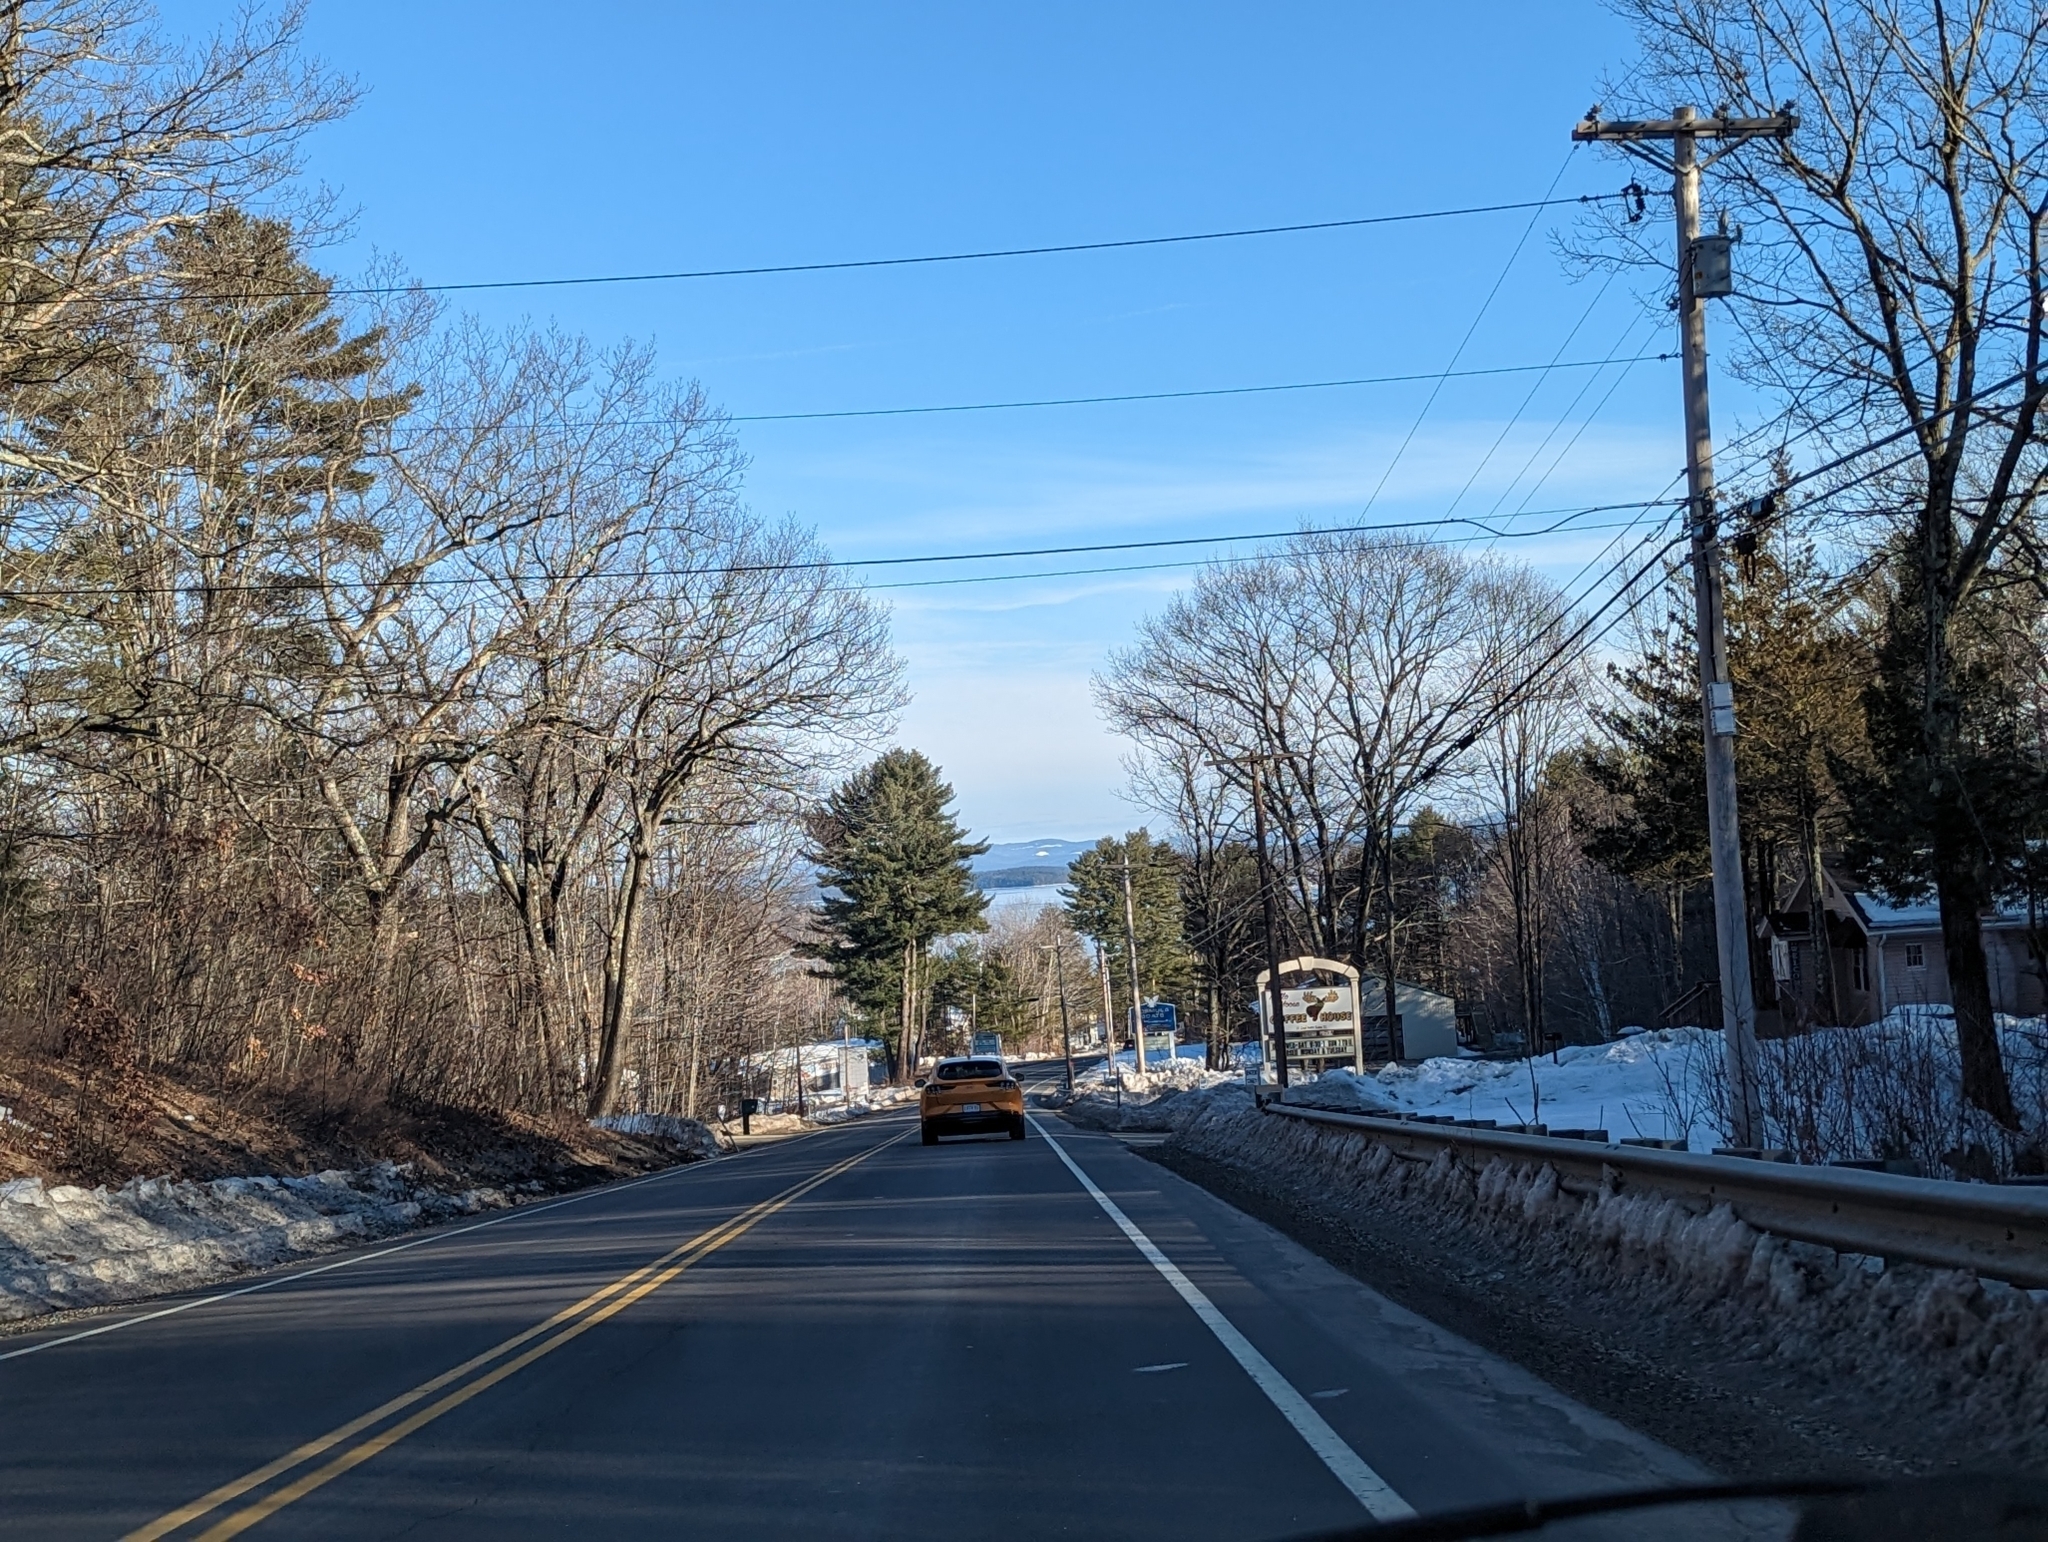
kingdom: Plantae
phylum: Tracheophyta
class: Pinopsida
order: Pinales
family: Pinaceae
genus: Pinus
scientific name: Pinus strobus
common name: Weymouth pine
